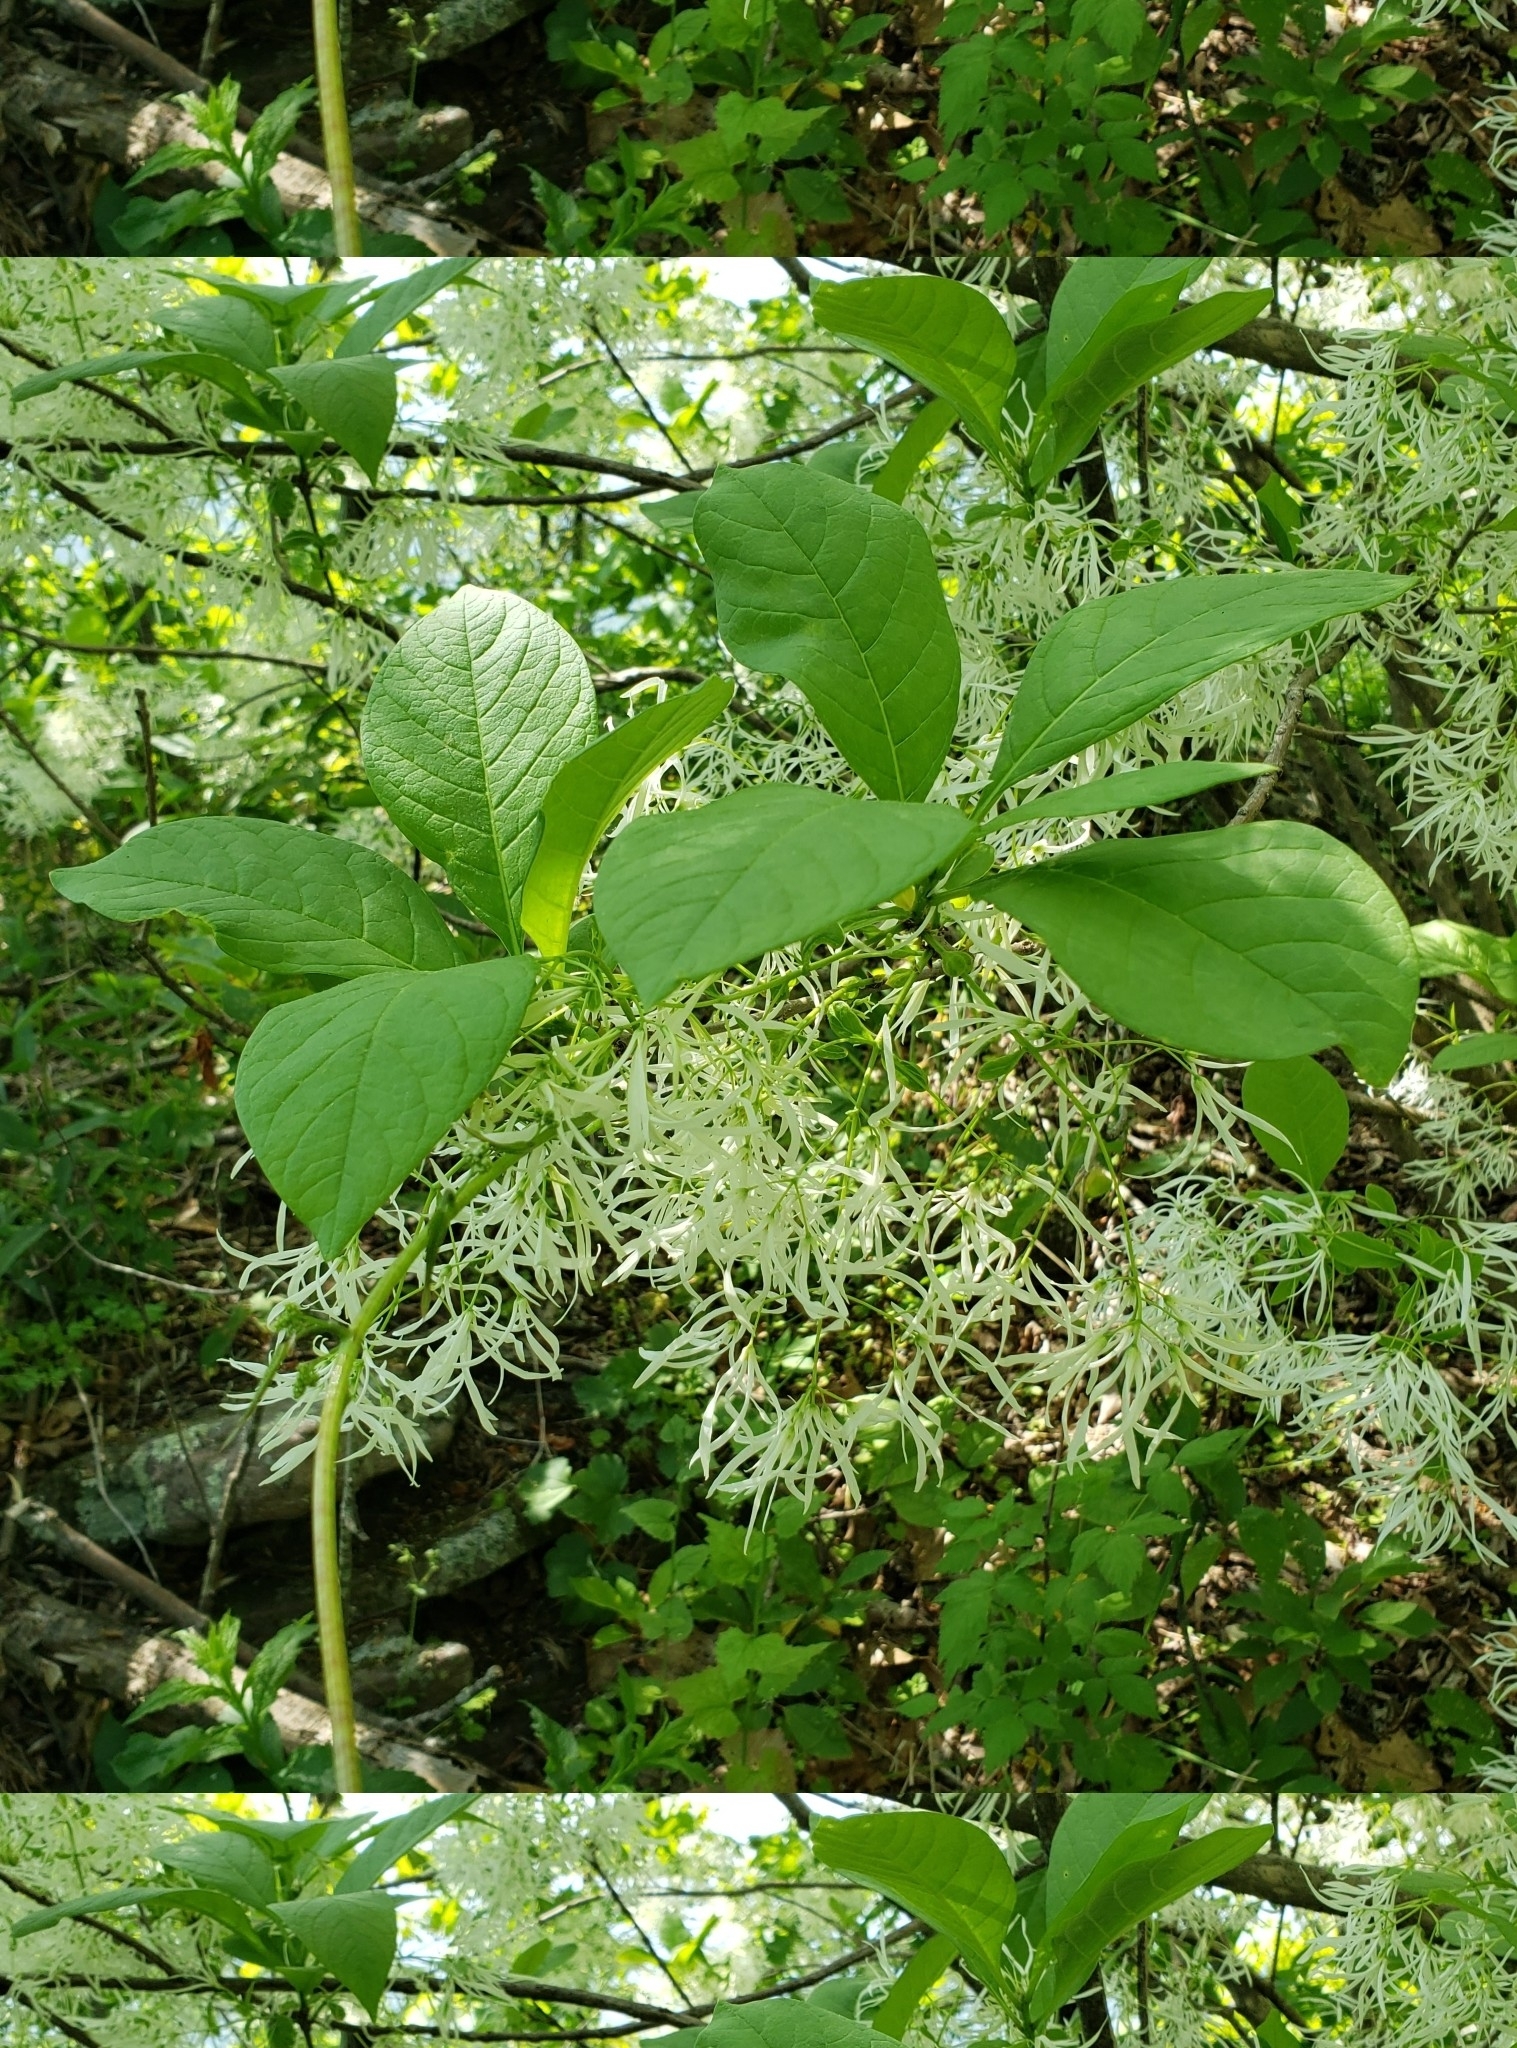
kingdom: Plantae
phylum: Tracheophyta
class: Magnoliopsida
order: Lamiales
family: Oleaceae
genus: Chionanthus
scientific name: Chionanthus virginicus
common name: American fringetree
